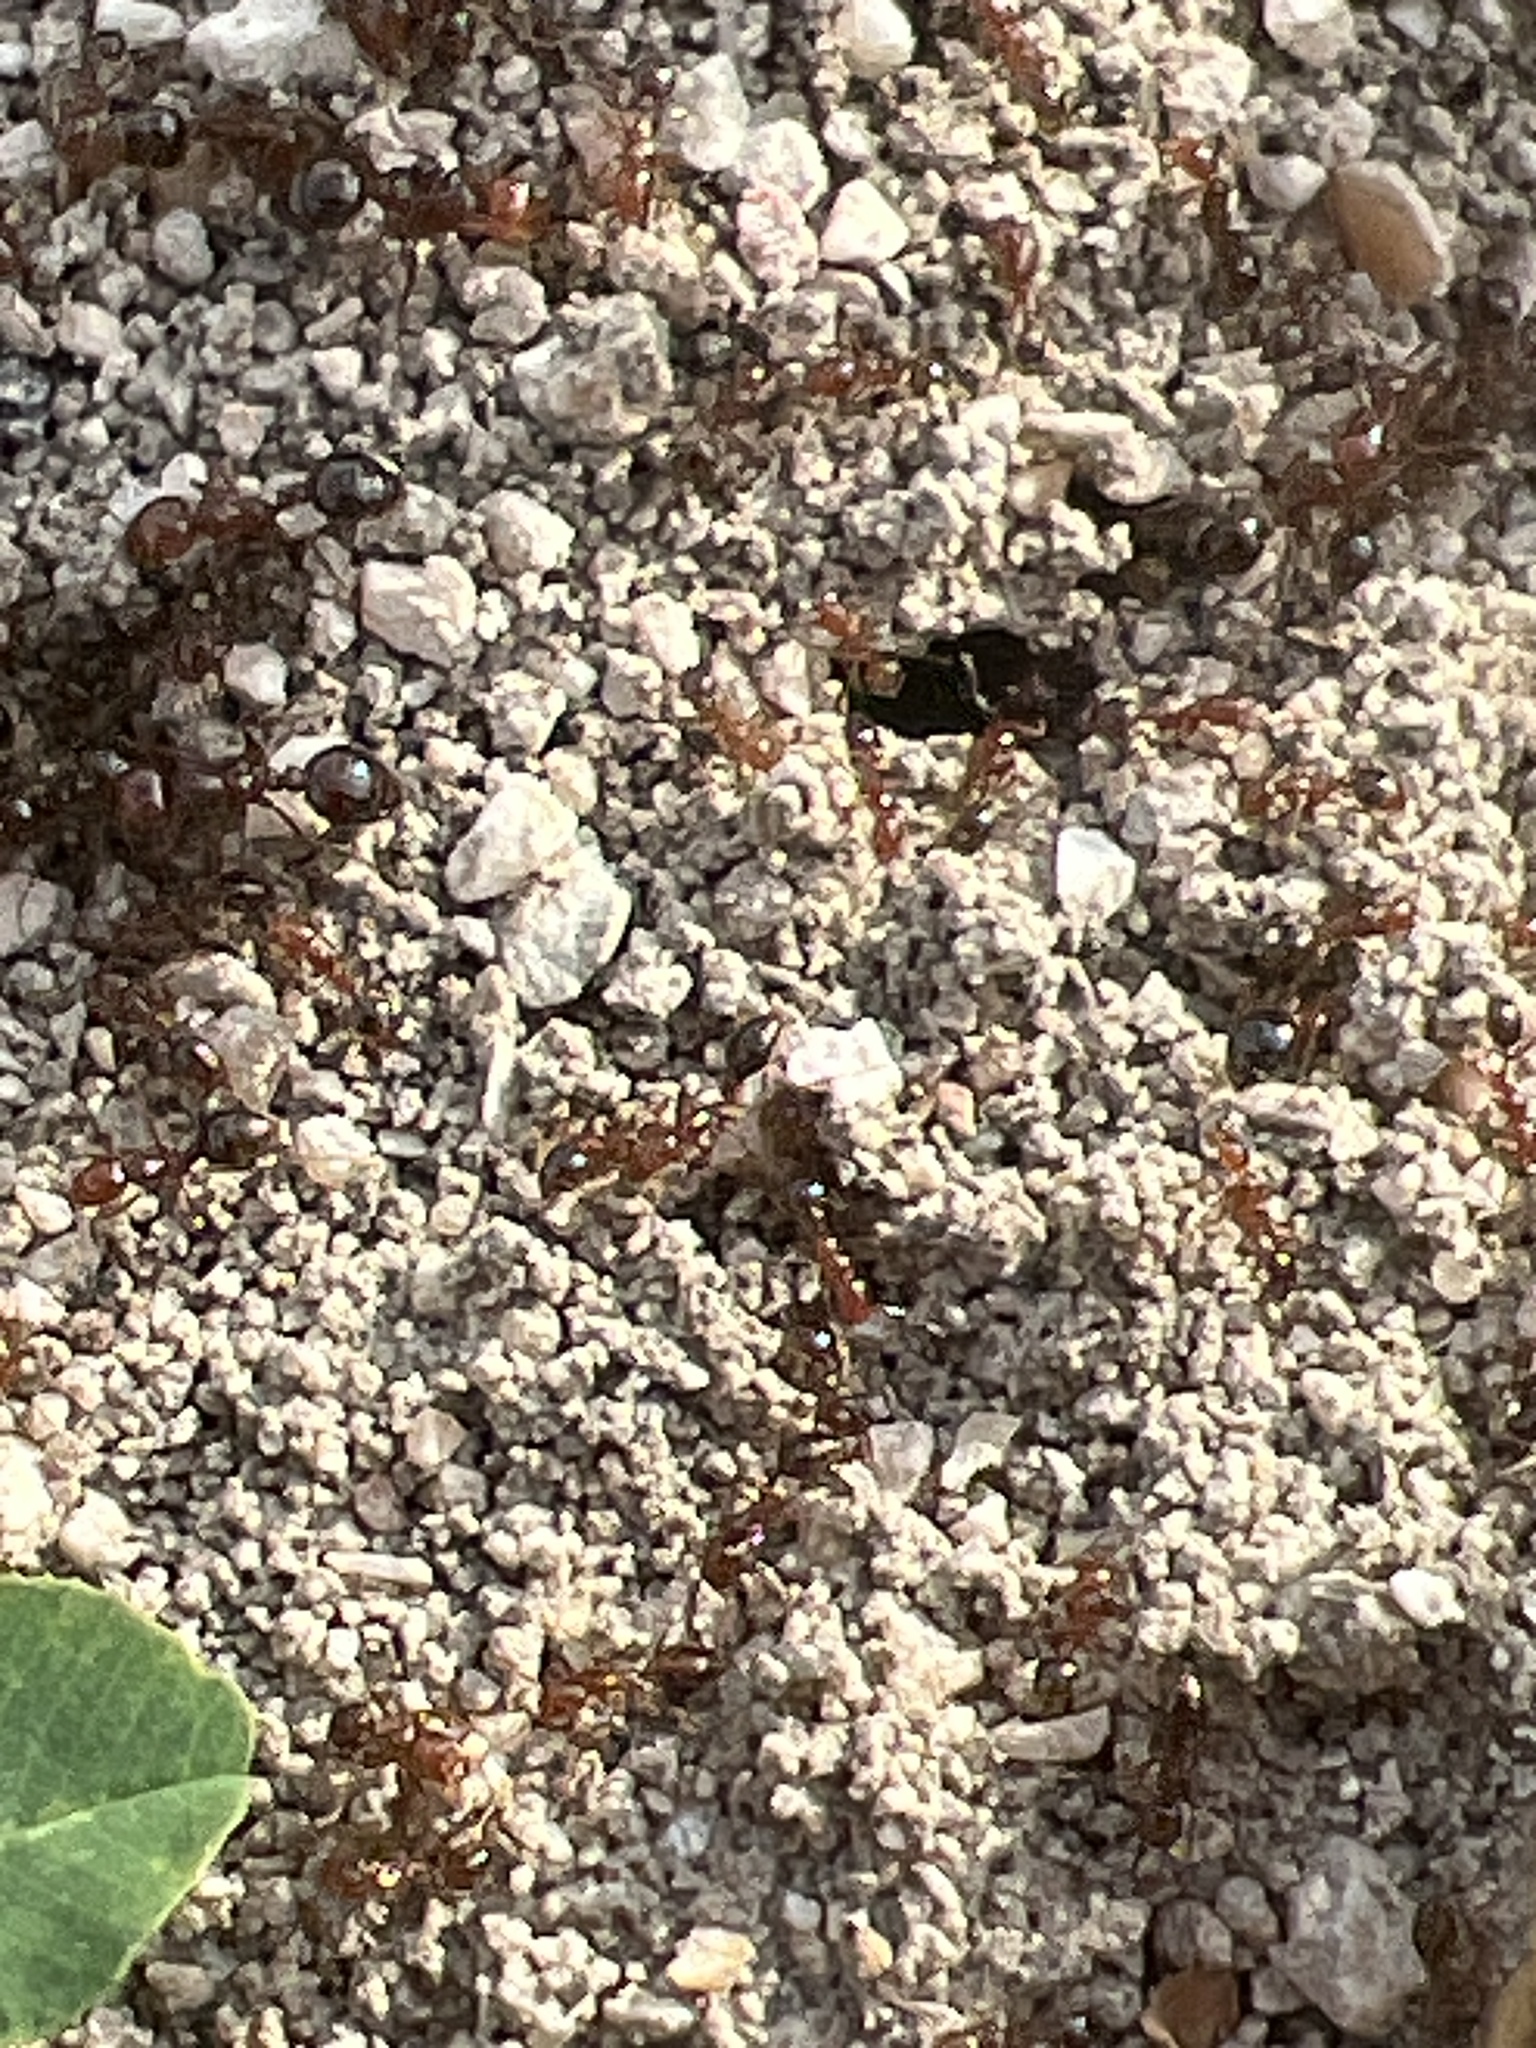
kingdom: Animalia
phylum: Arthropoda
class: Insecta
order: Hymenoptera
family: Formicidae
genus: Solenopsis
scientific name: Solenopsis invicta
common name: Red imported fire ant
